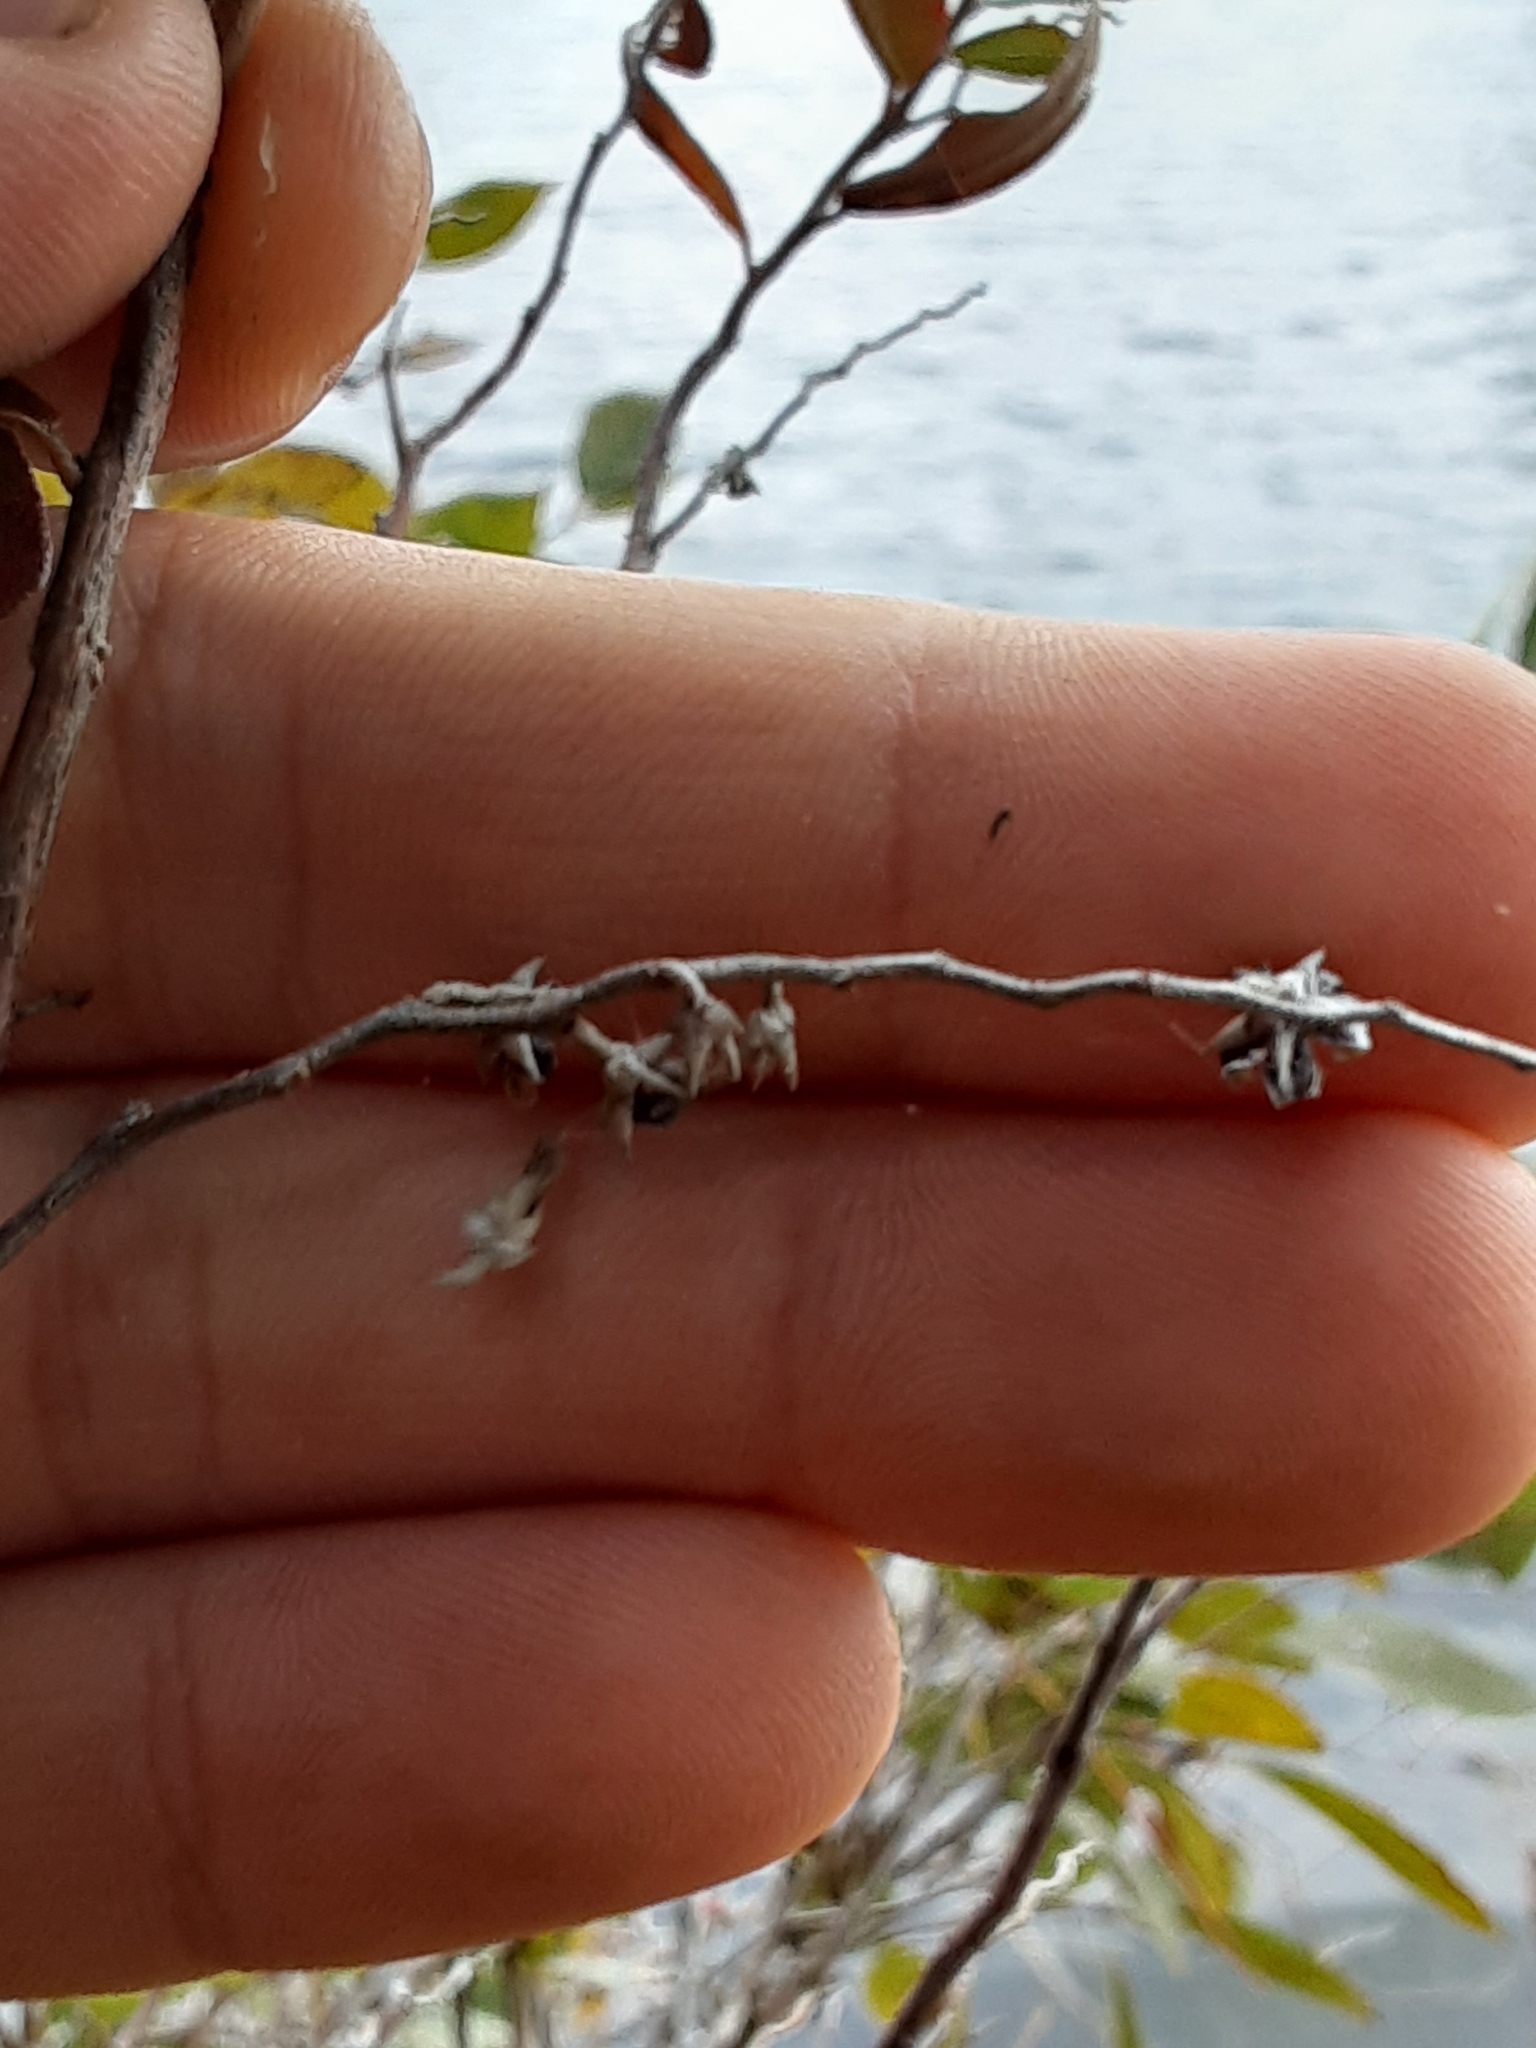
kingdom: Plantae
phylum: Tracheophyta
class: Magnoliopsida
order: Ericales
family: Ericaceae
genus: Chamaedaphne
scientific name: Chamaedaphne calyculata
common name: Leatherleaf
